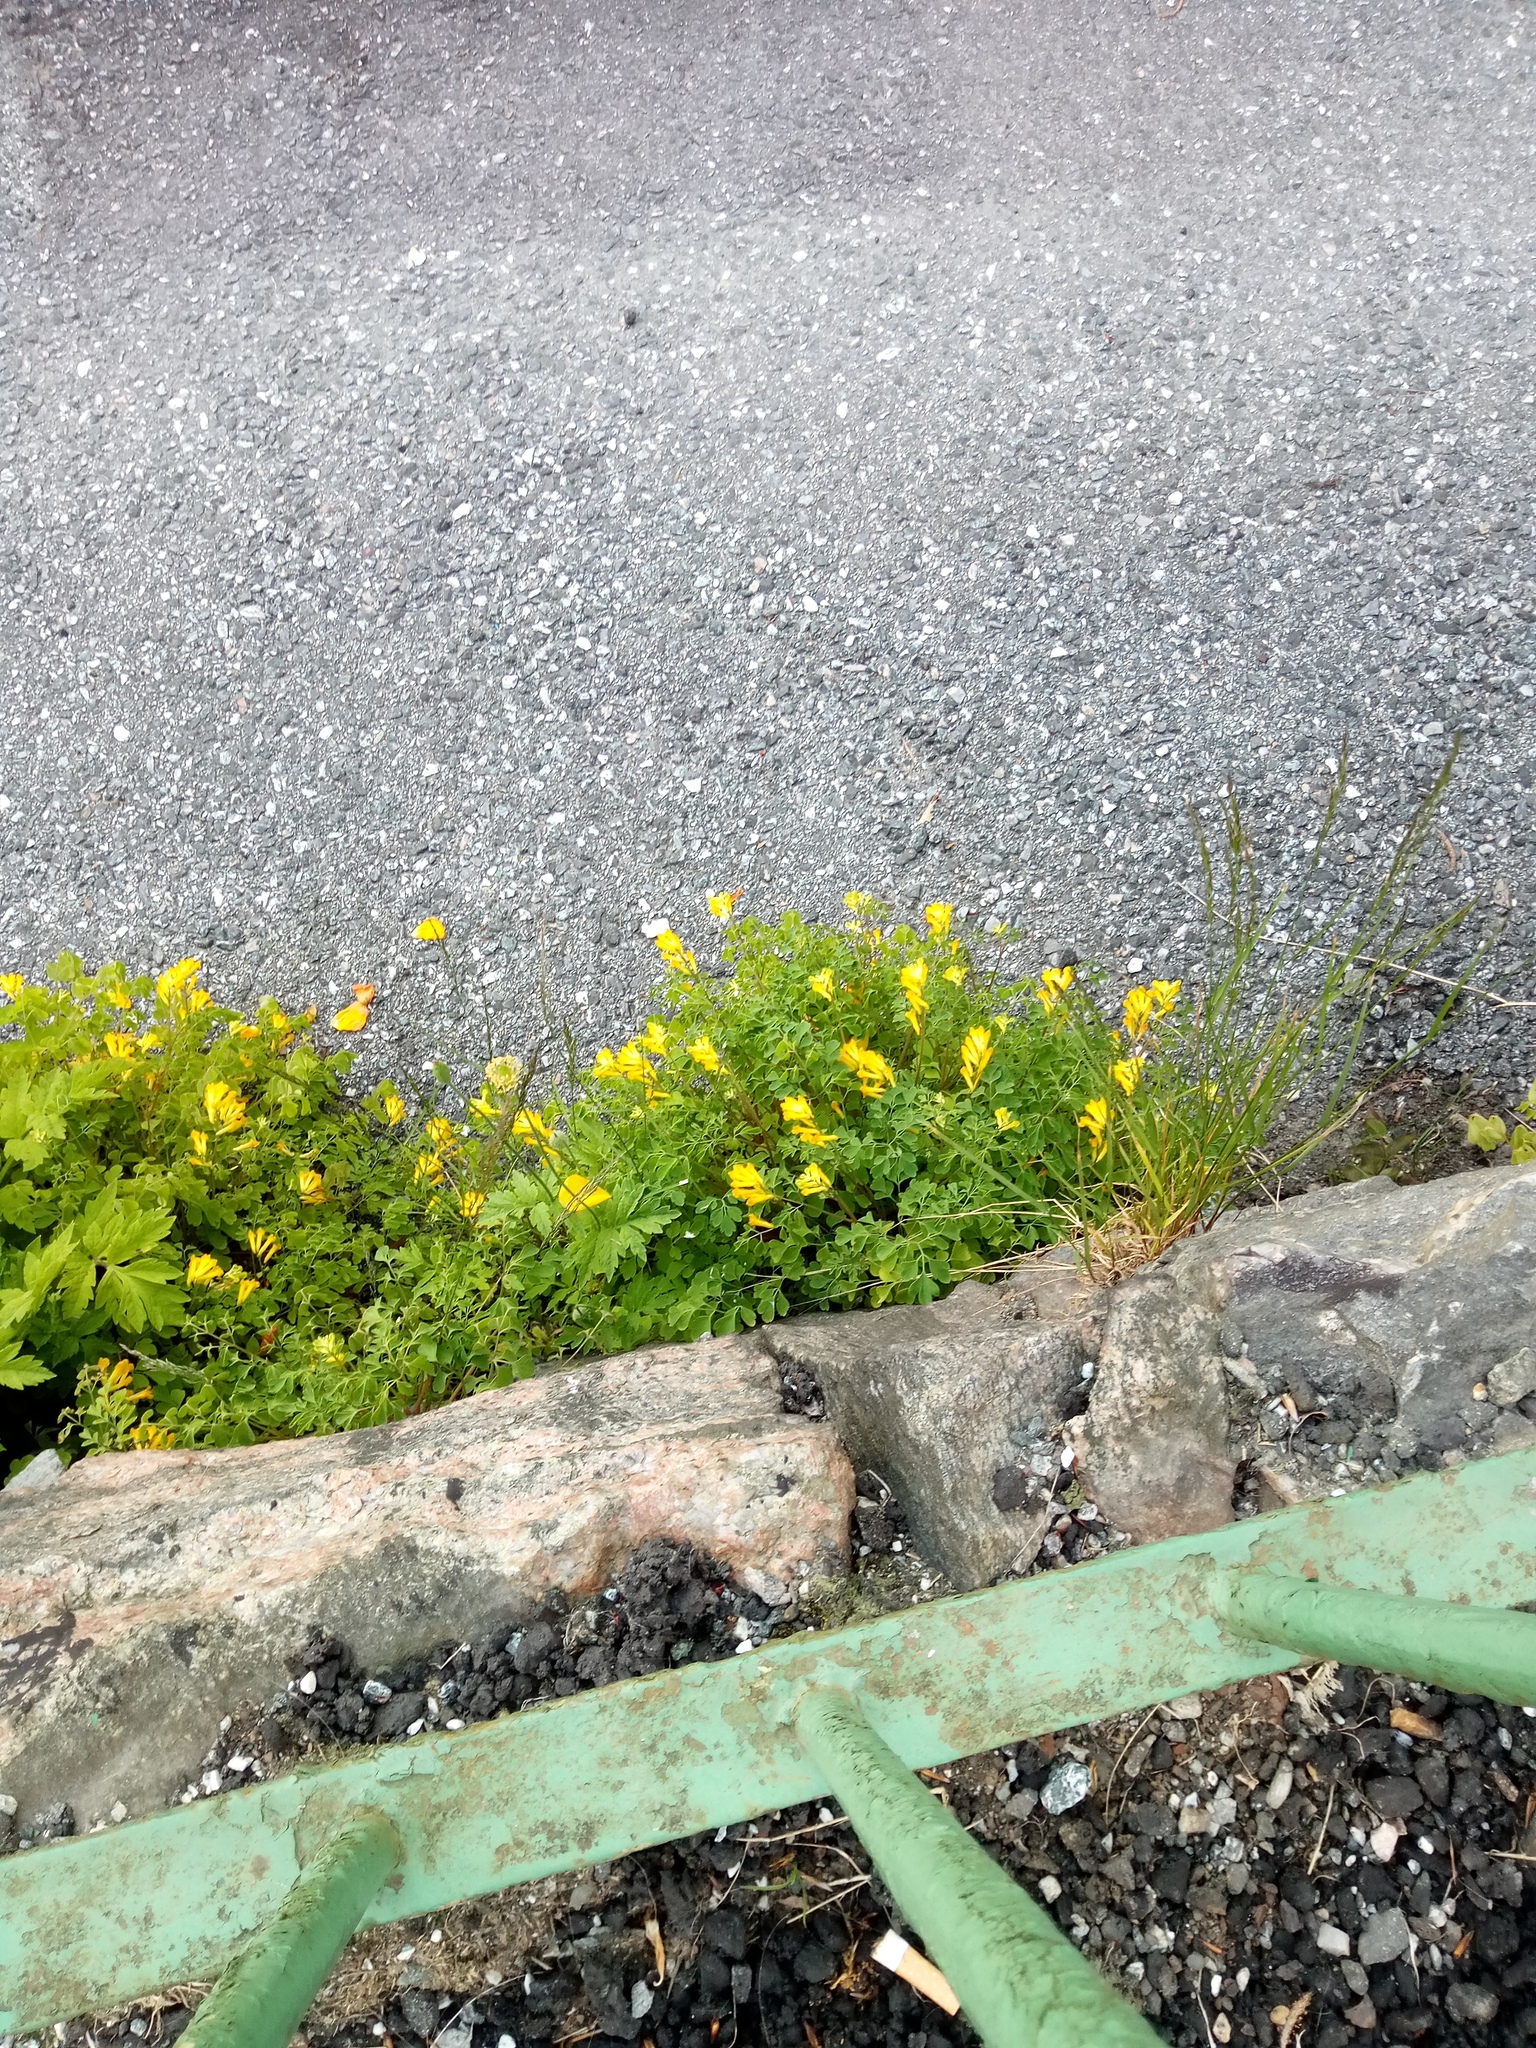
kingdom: Plantae
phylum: Tracheophyta
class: Magnoliopsida
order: Ranunculales
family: Papaveraceae
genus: Papaver
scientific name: Papaver cambricum
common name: Poppy
